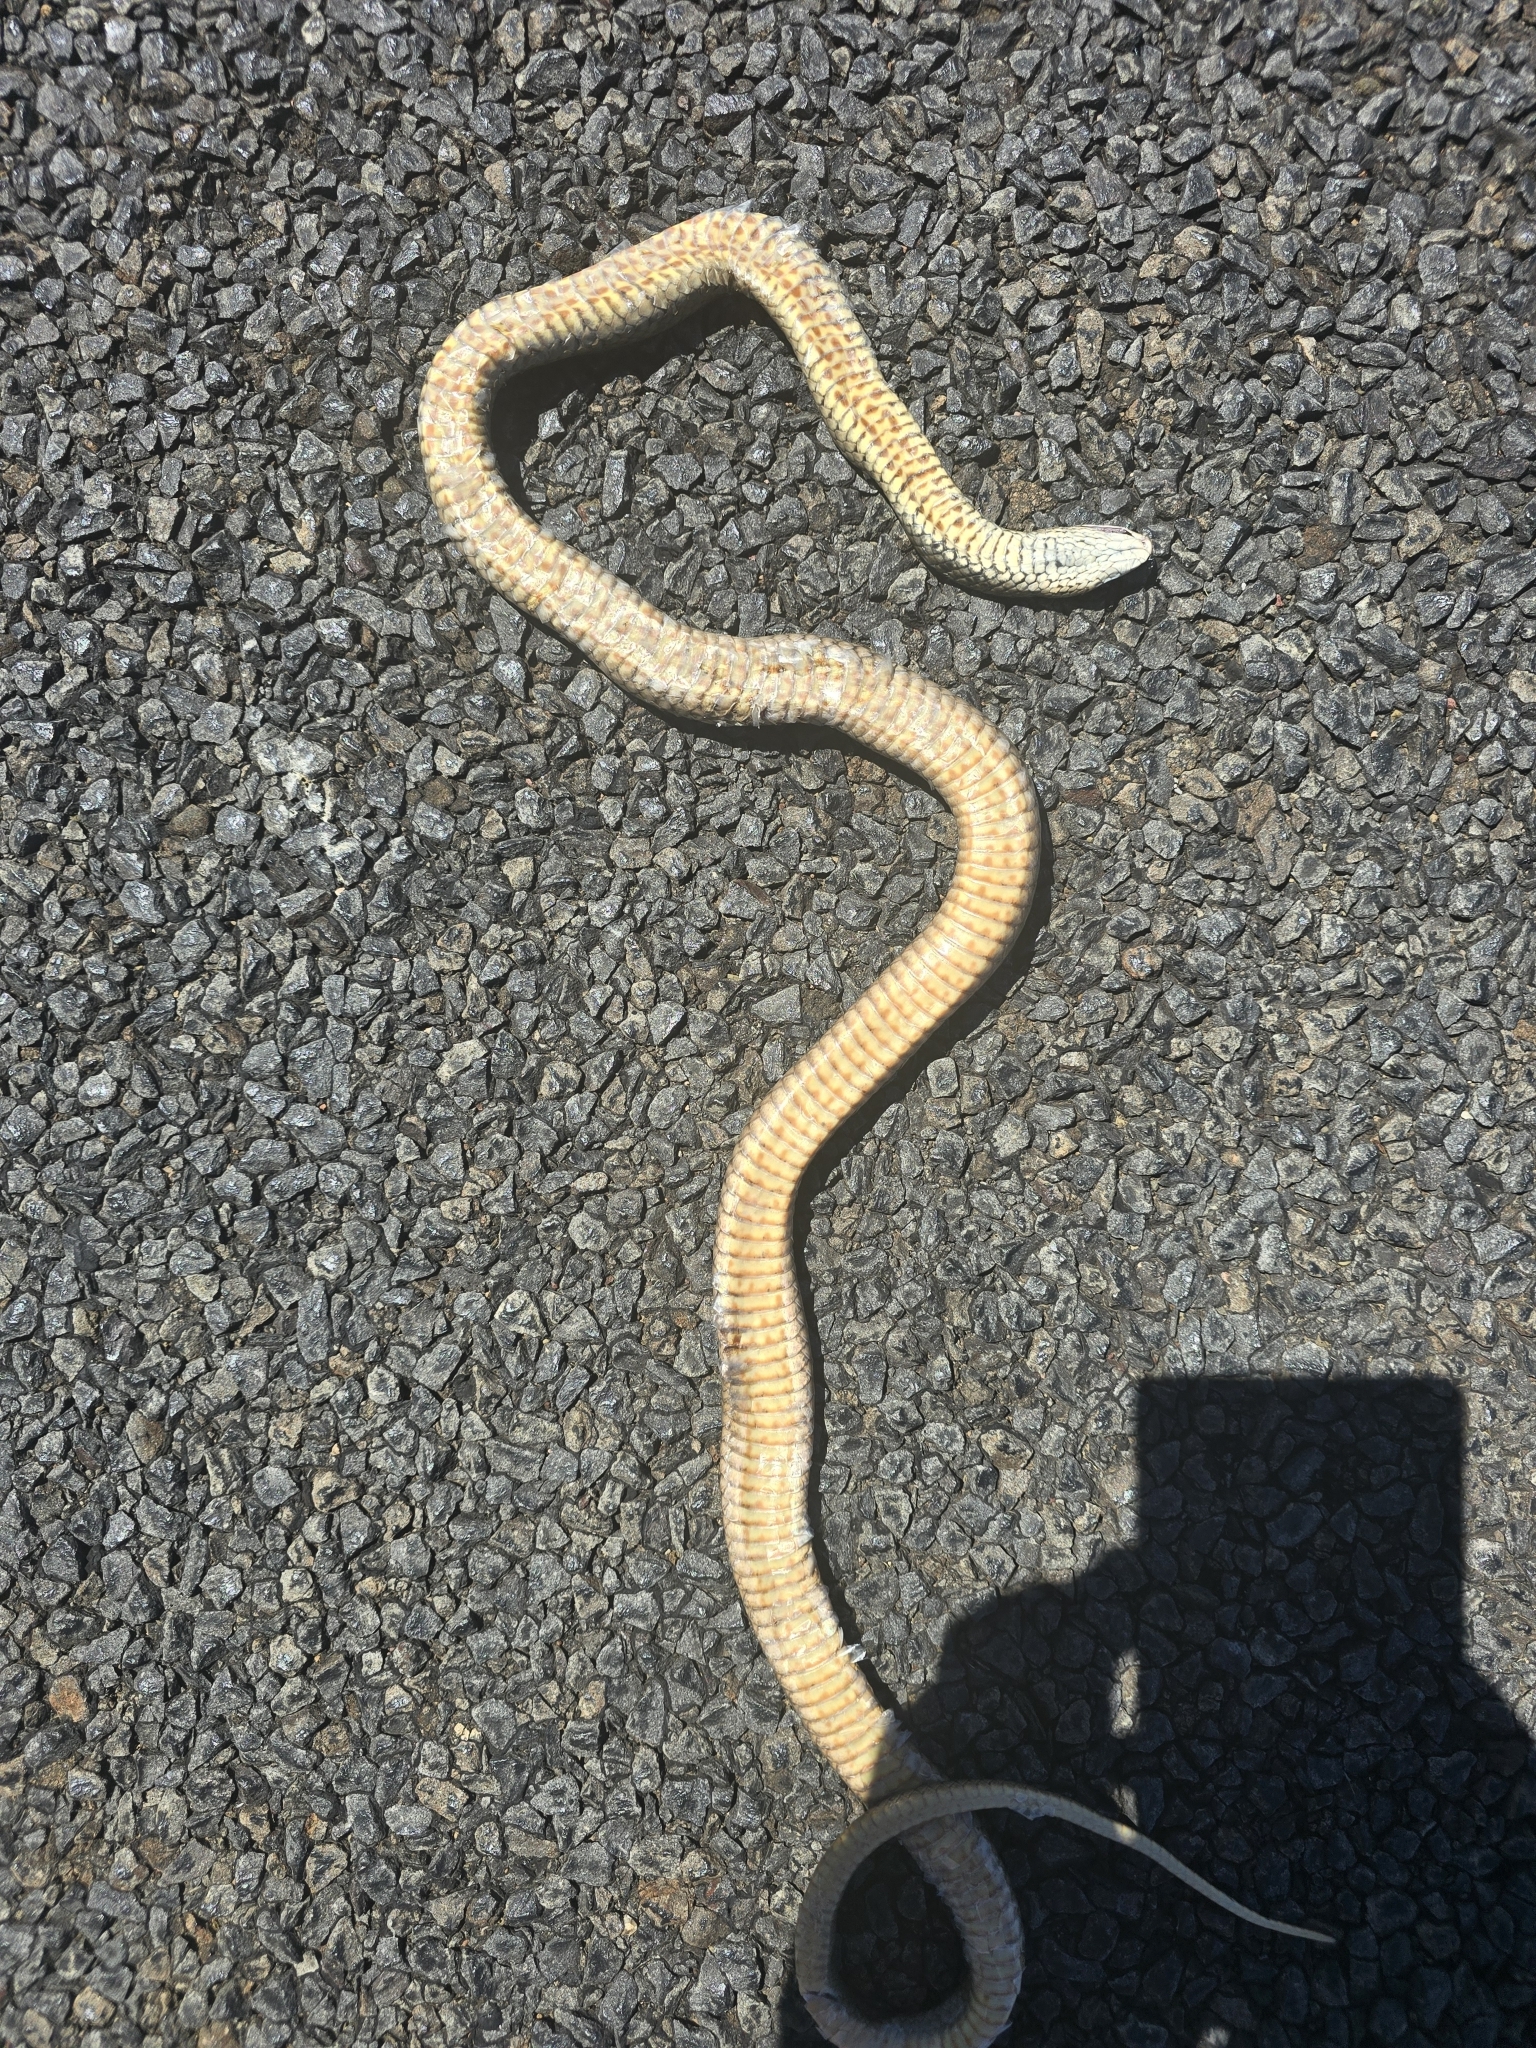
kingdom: Animalia
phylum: Chordata
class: Squamata
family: Elapidae
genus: Pseudonaja
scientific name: Pseudonaja textilis
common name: Eastern brown snake
